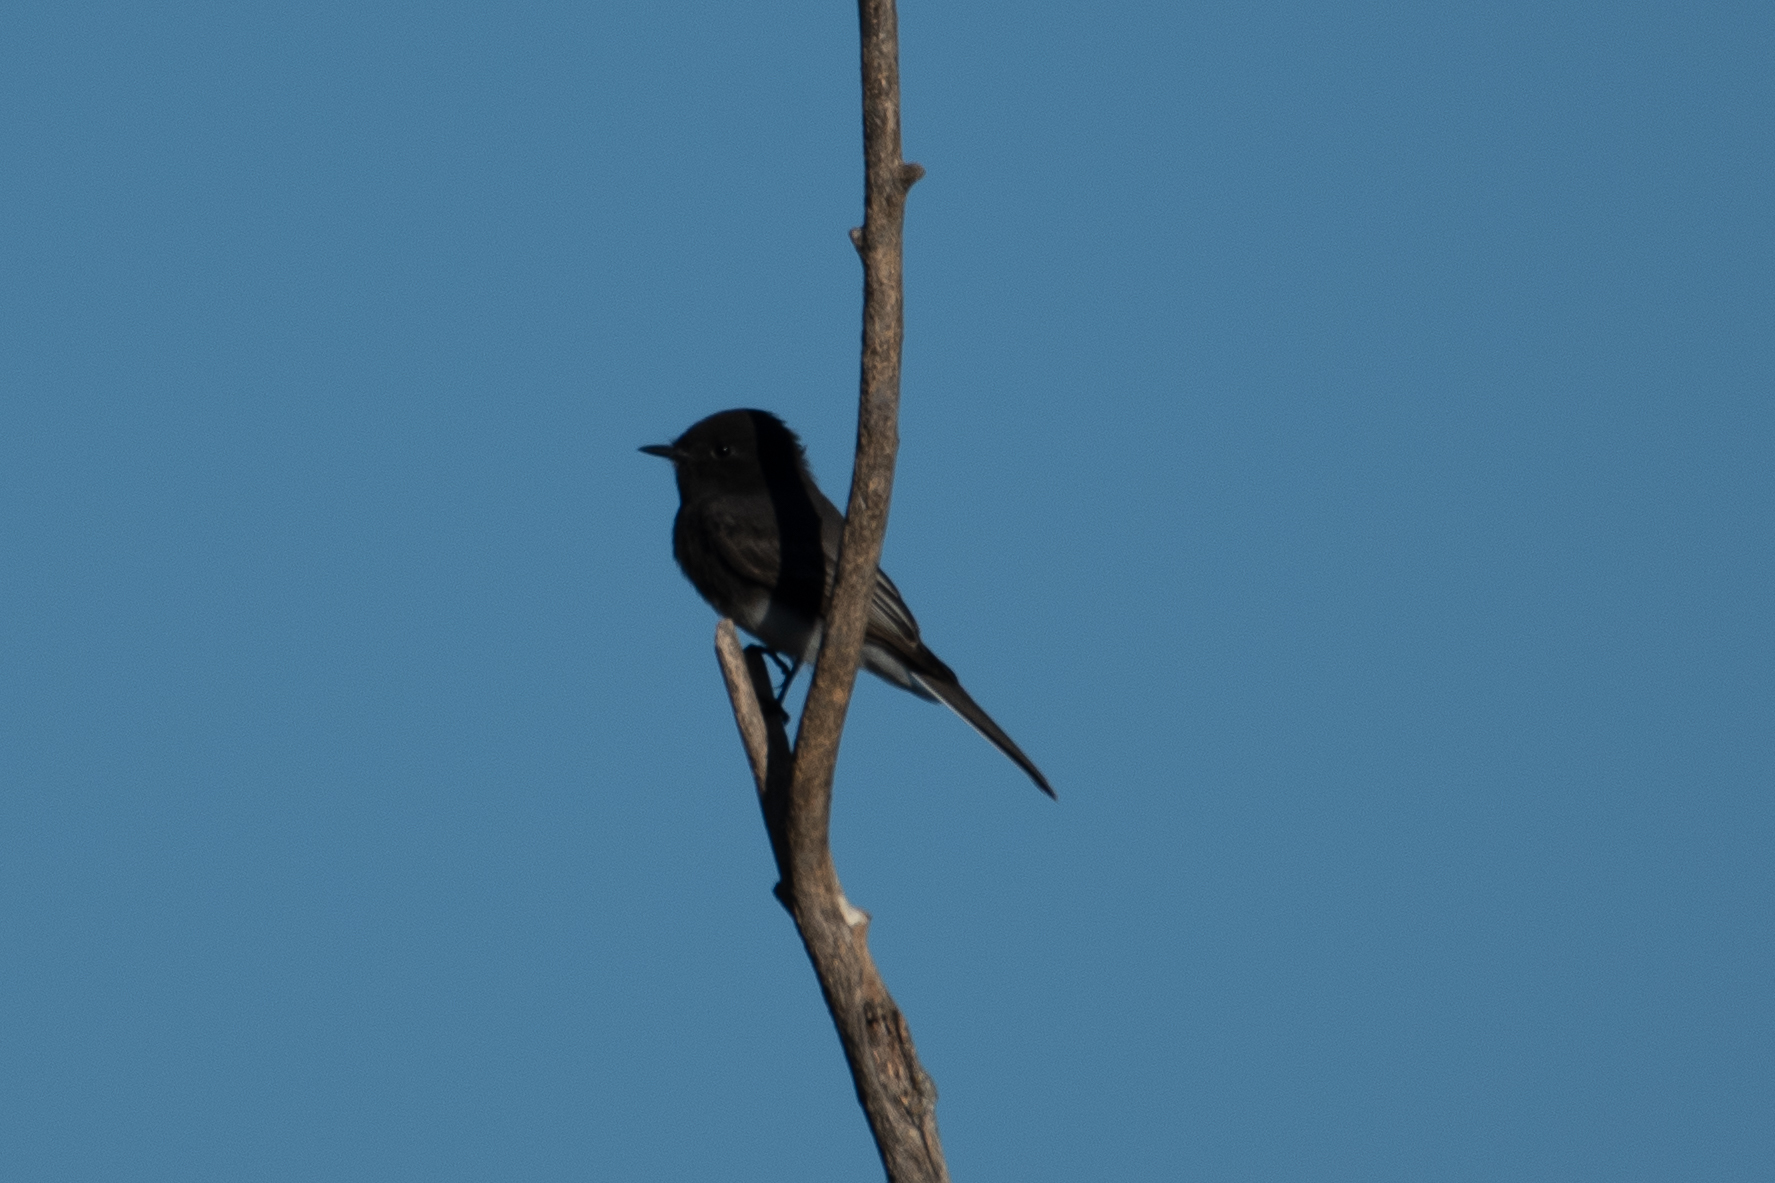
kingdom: Animalia
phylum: Chordata
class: Aves
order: Passeriformes
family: Tyrannidae
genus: Sayornis
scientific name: Sayornis nigricans
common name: Black phoebe
